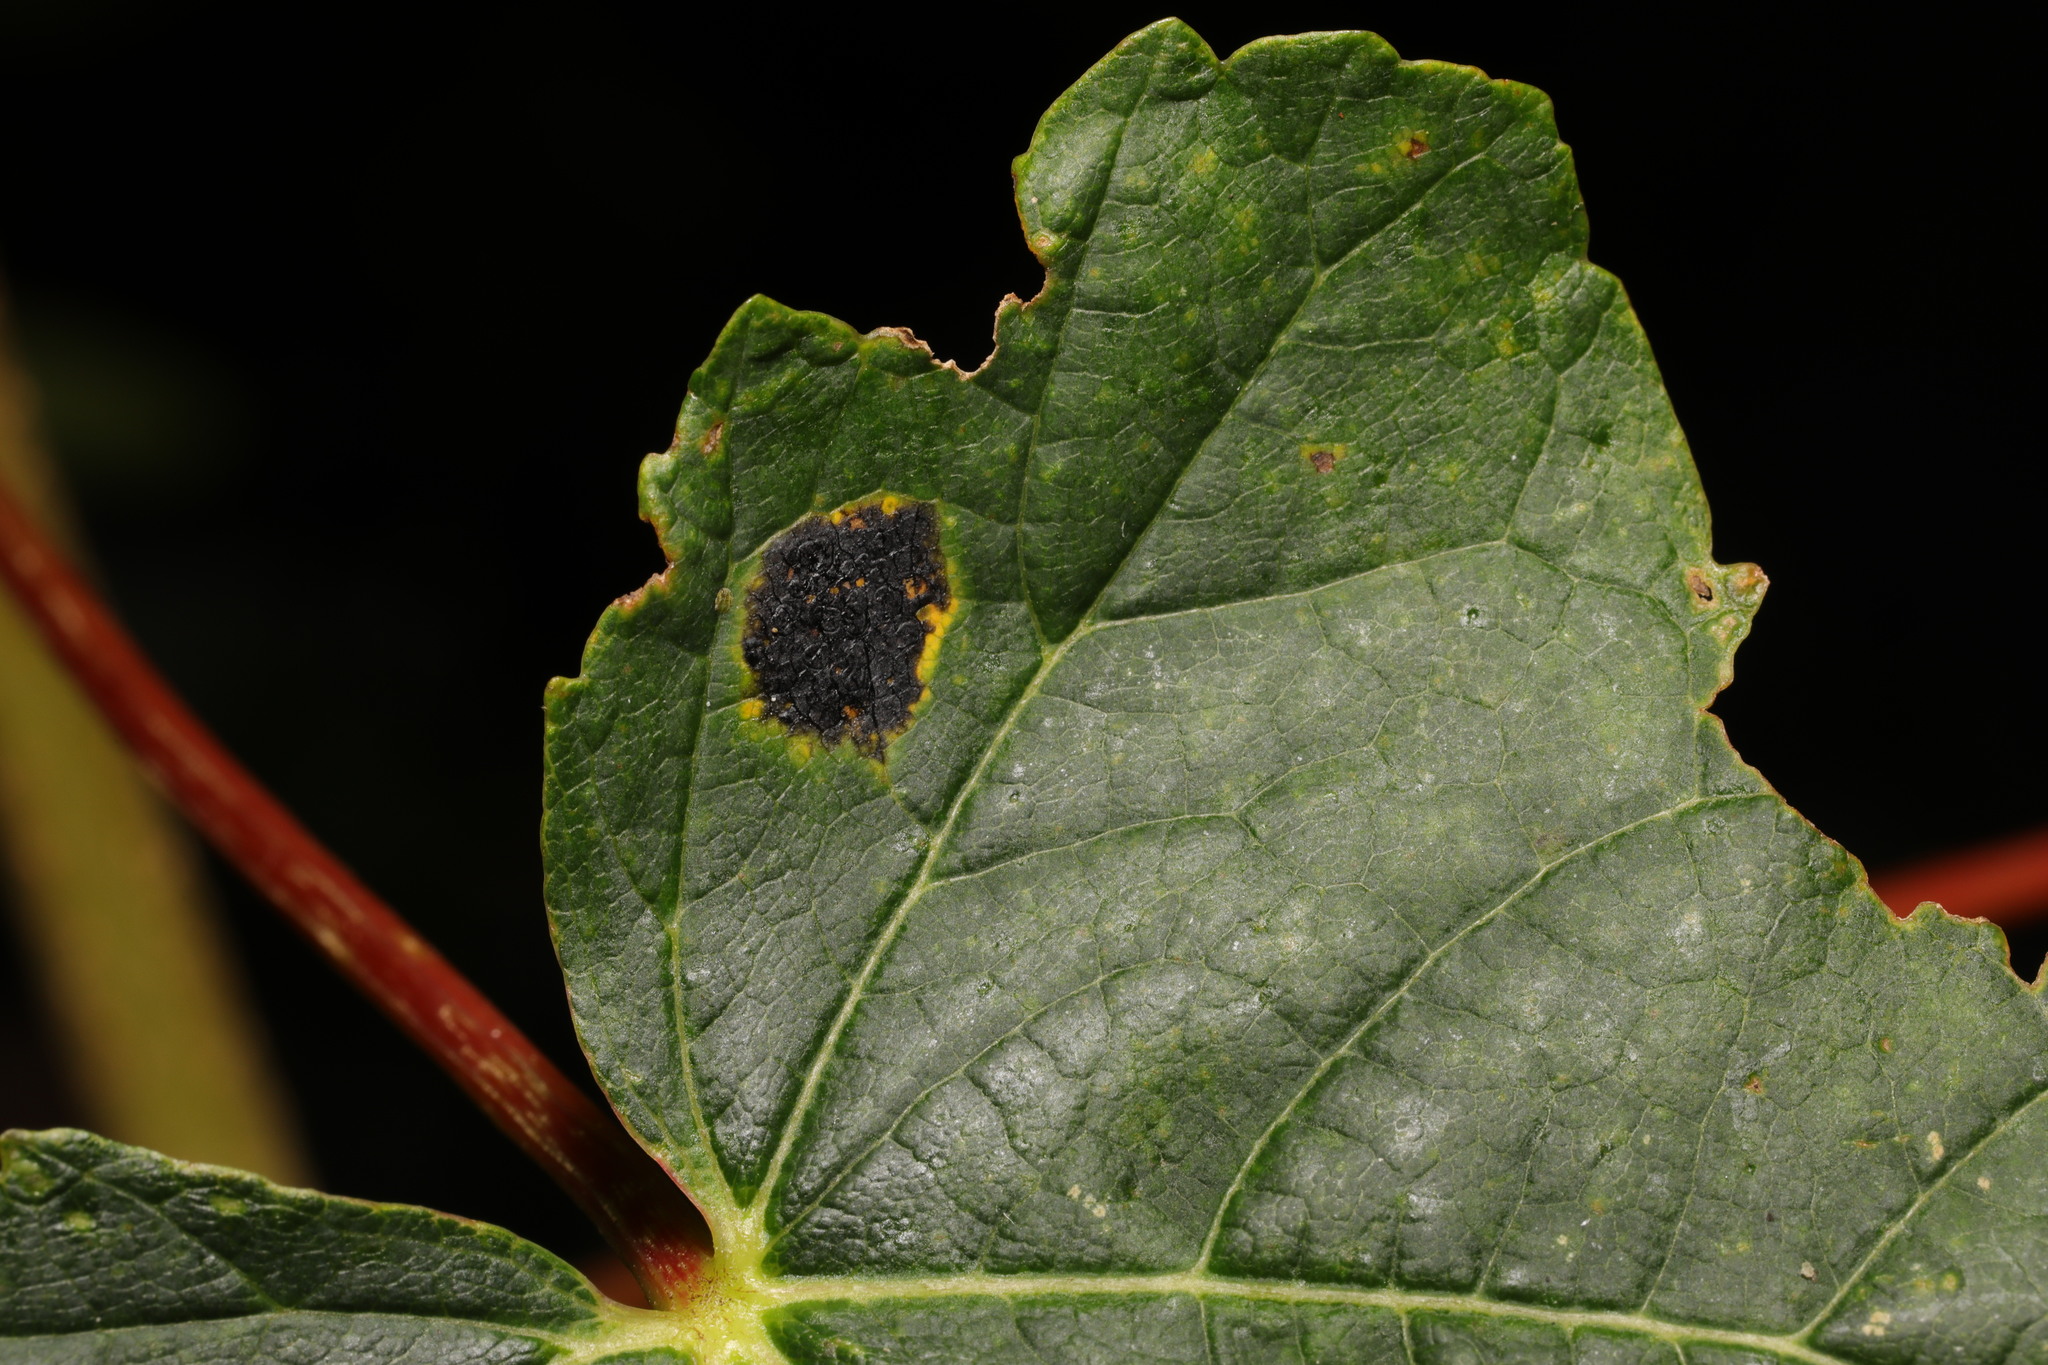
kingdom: Fungi
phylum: Ascomycota
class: Leotiomycetes
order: Rhytismatales
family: Rhytismataceae
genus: Rhytisma
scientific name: Rhytisma acerinum
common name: European tar spot
